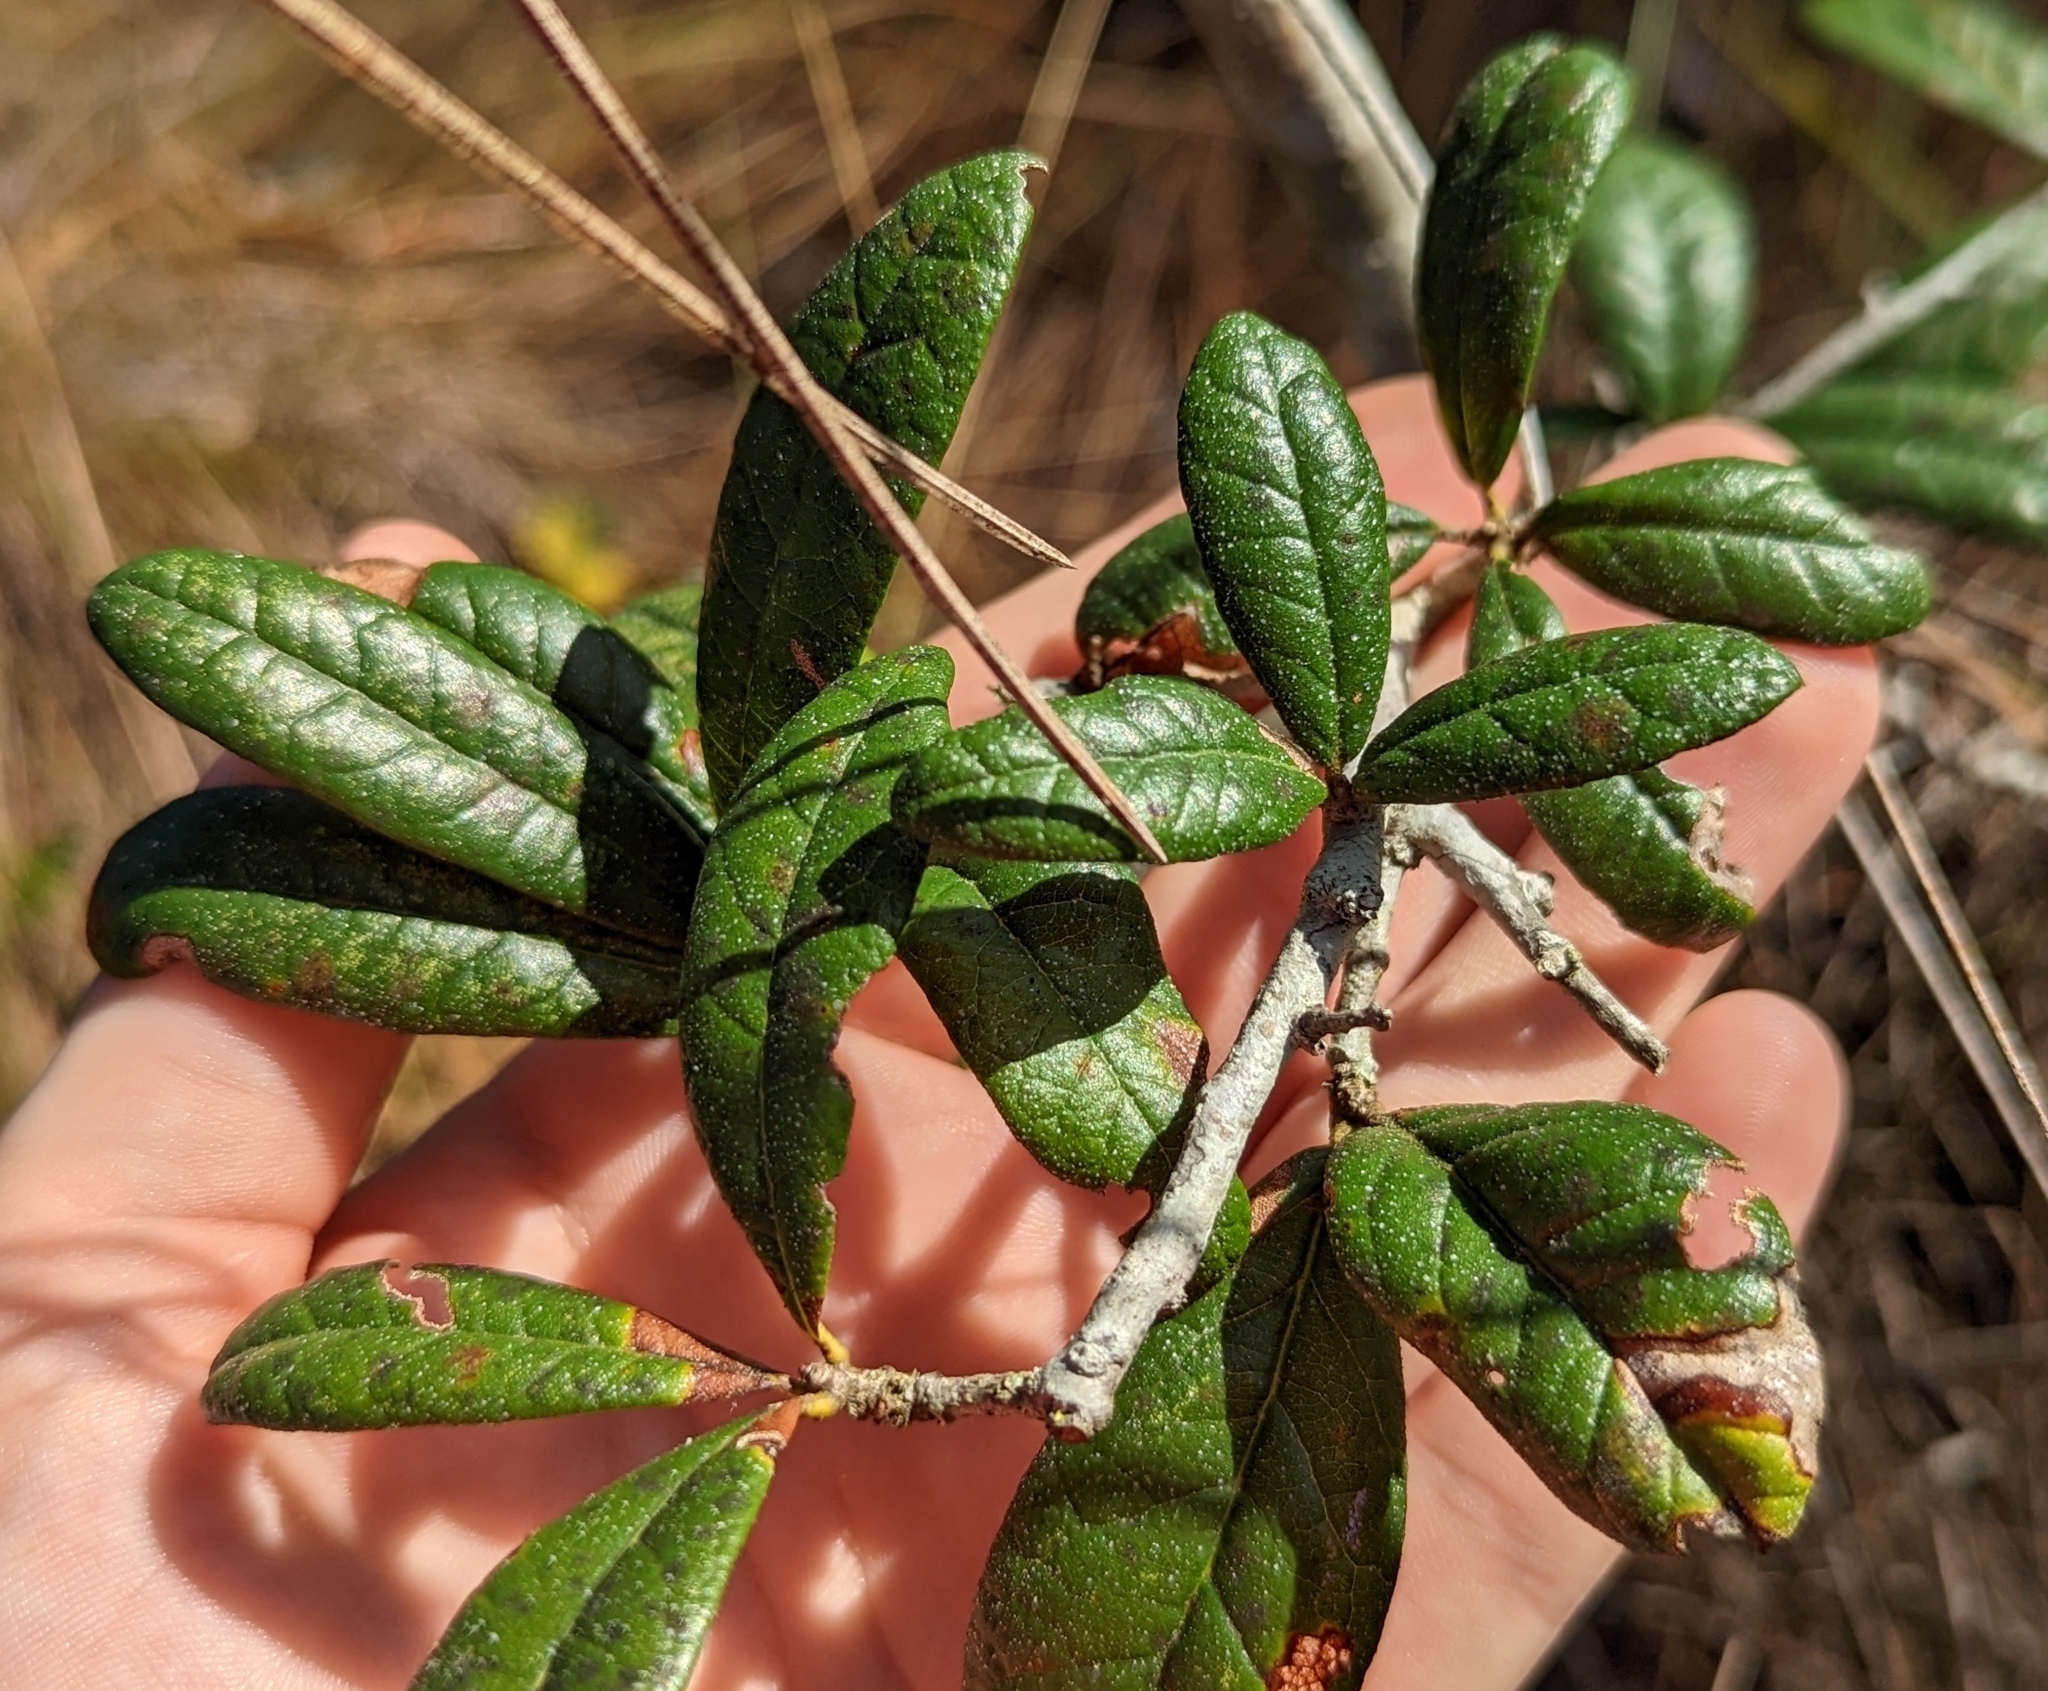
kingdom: Plantae
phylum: Tracheophyta
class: Magnoliopsida
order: Fagales
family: Fagaceae
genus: Quercus
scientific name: Quercus geminata
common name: Sand live oak
